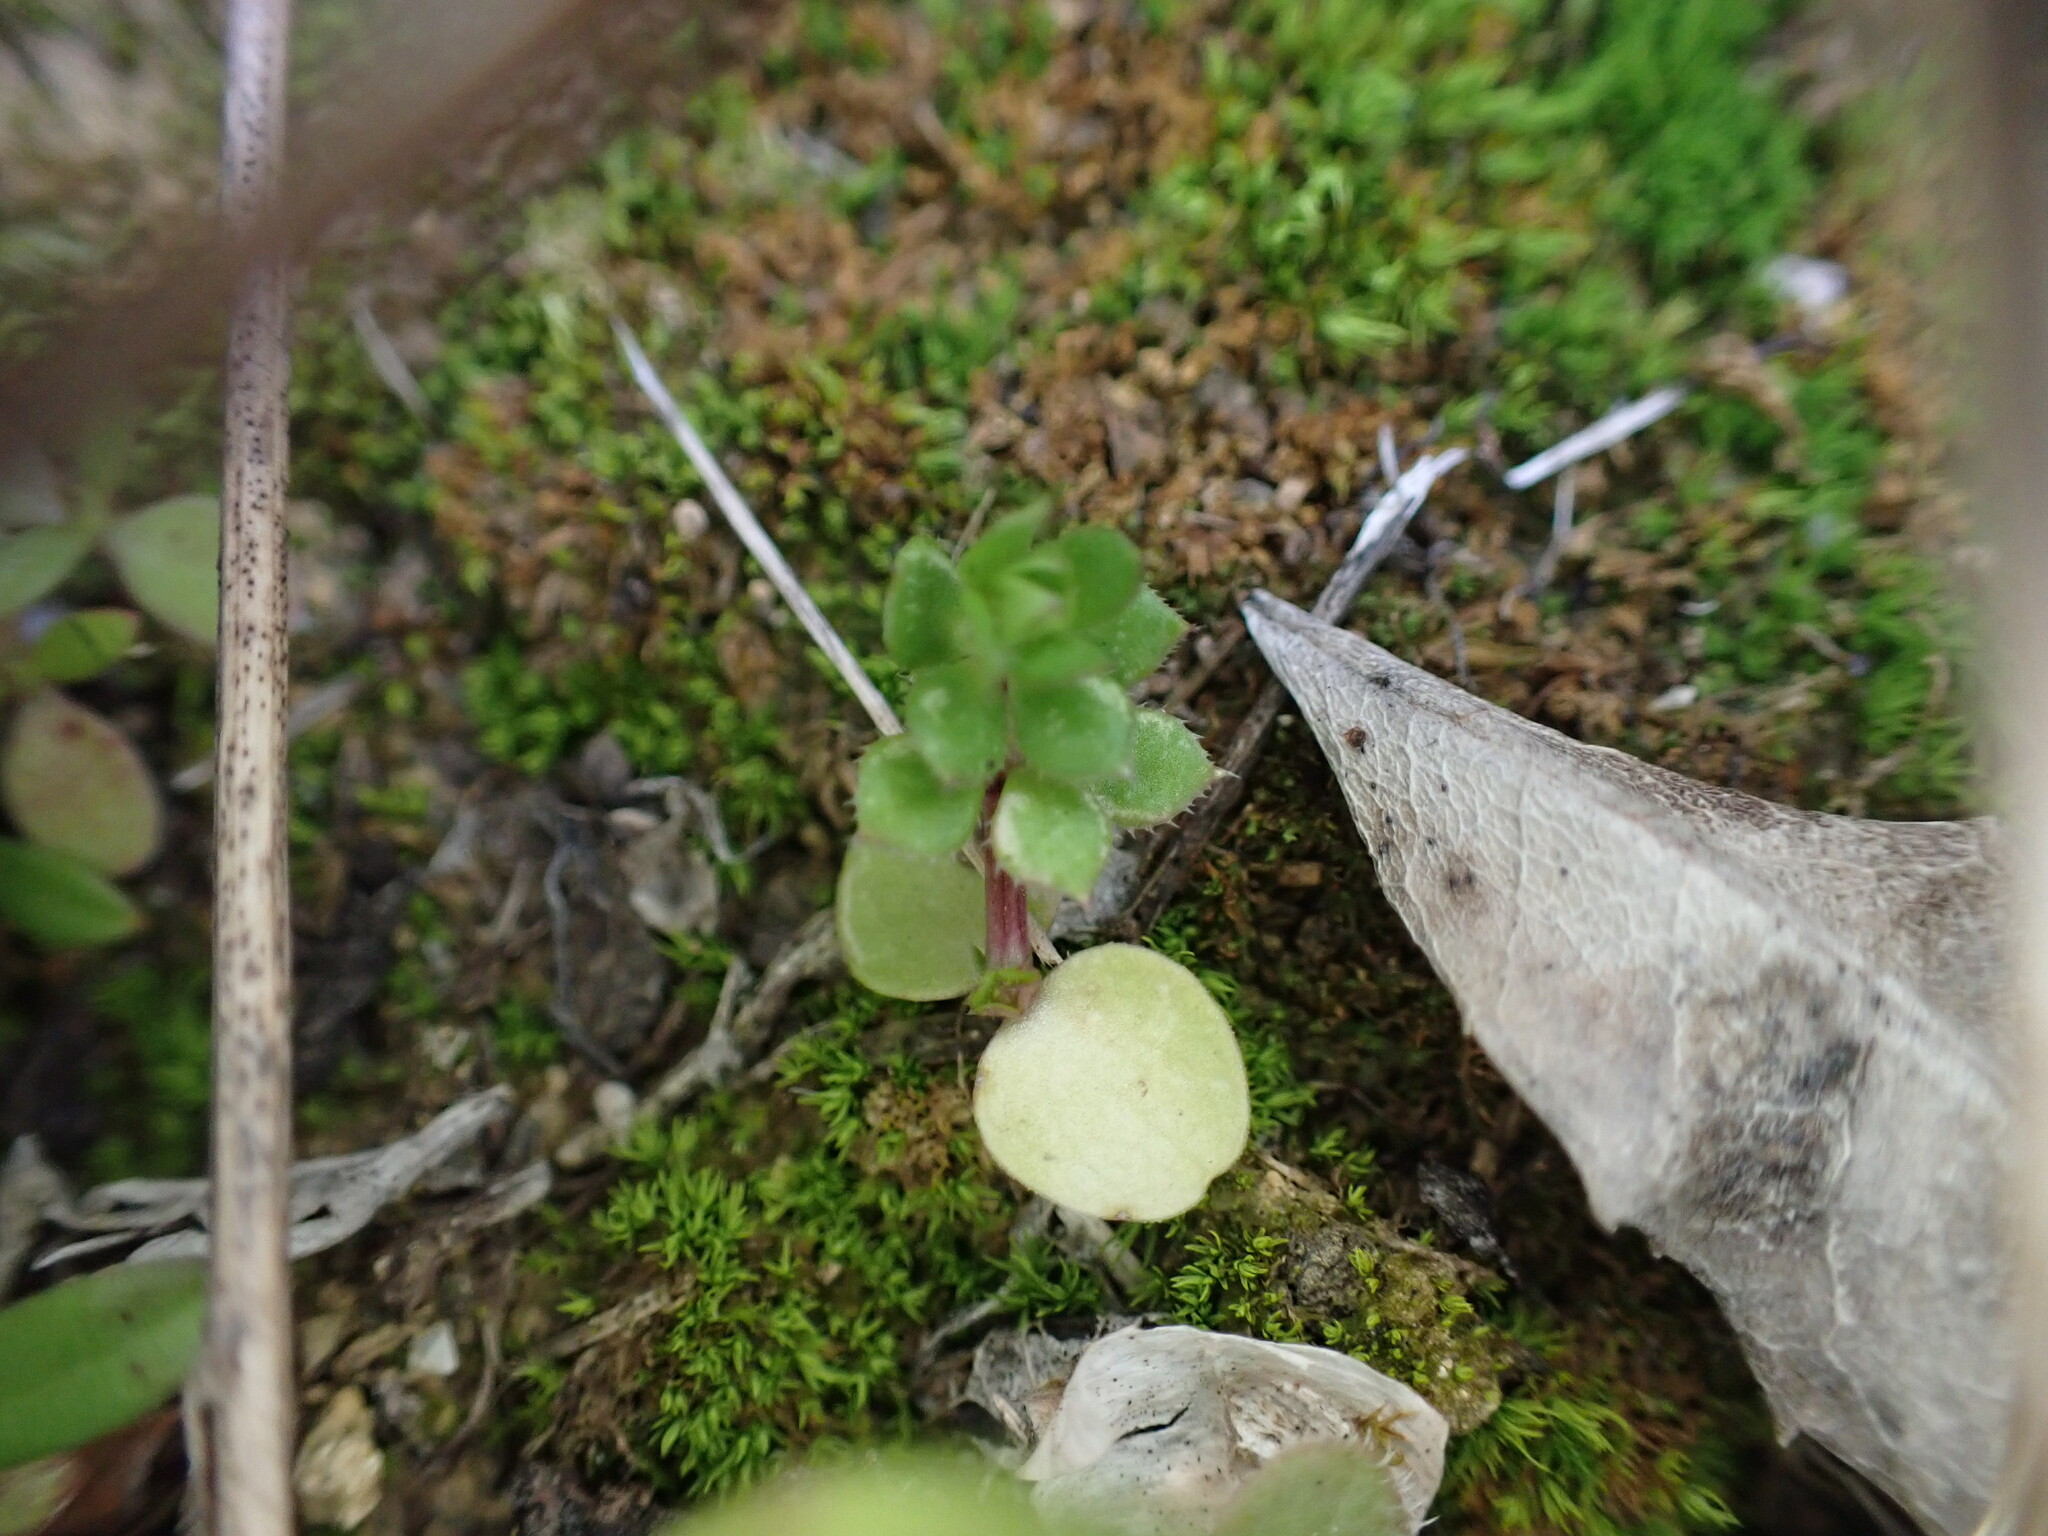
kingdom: Plantae
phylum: Tracheophyta
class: Magnoliopsida
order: Gentianales
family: Rubiaceae
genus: Sherardia
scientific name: Sherardia arvensis
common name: Field madder
